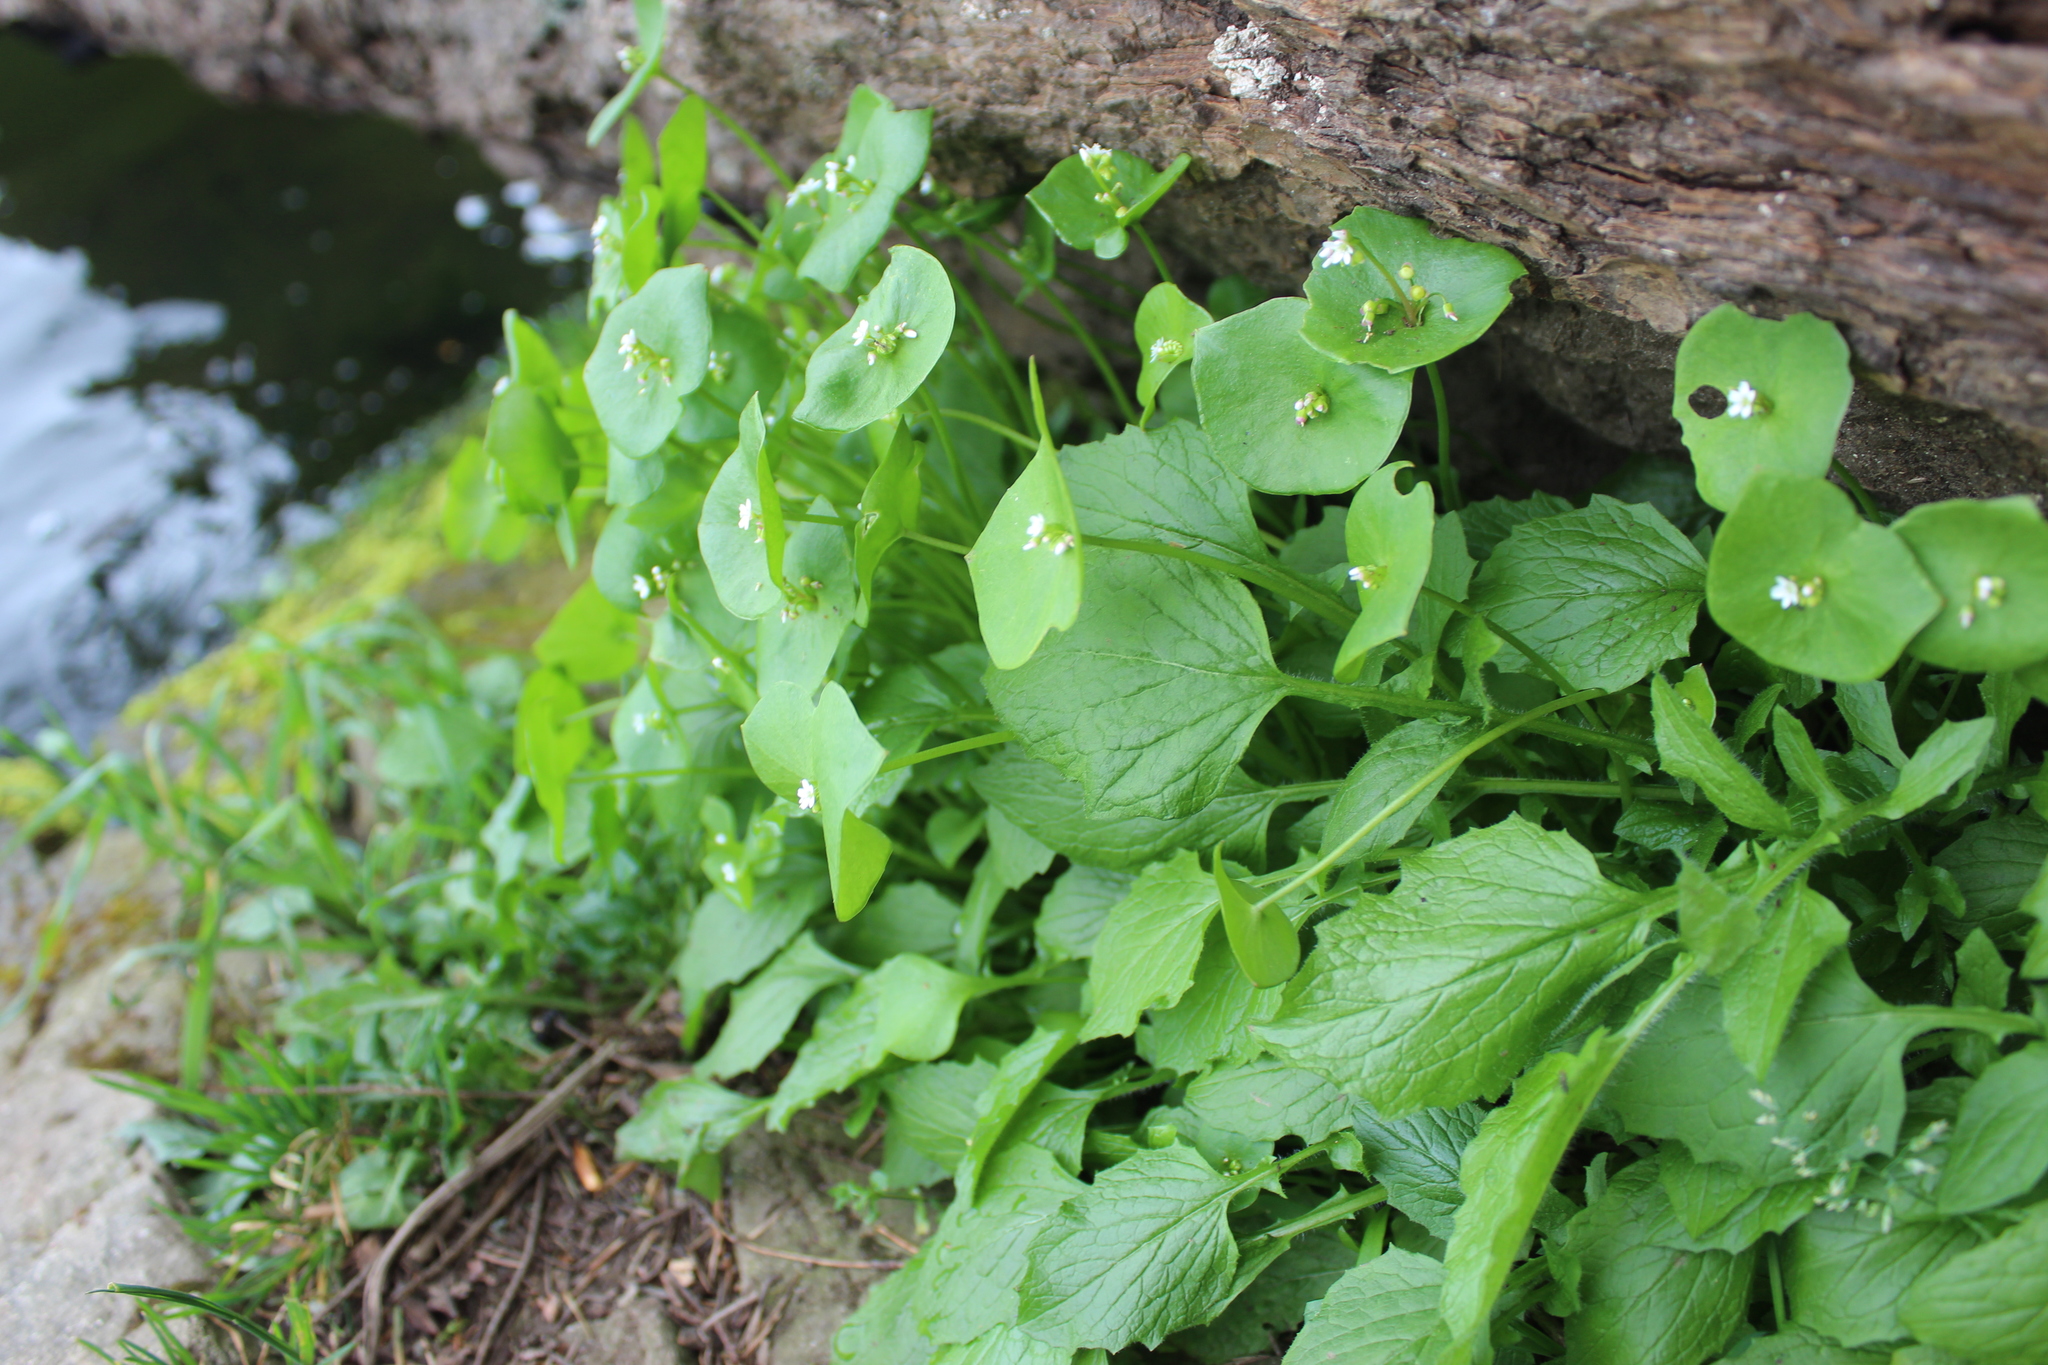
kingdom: Plantae
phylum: Tracheophyta
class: Magnoliopsida
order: Caryophyllales
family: Montiaceae
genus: Claytonia
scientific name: Claytonia perfoliata
